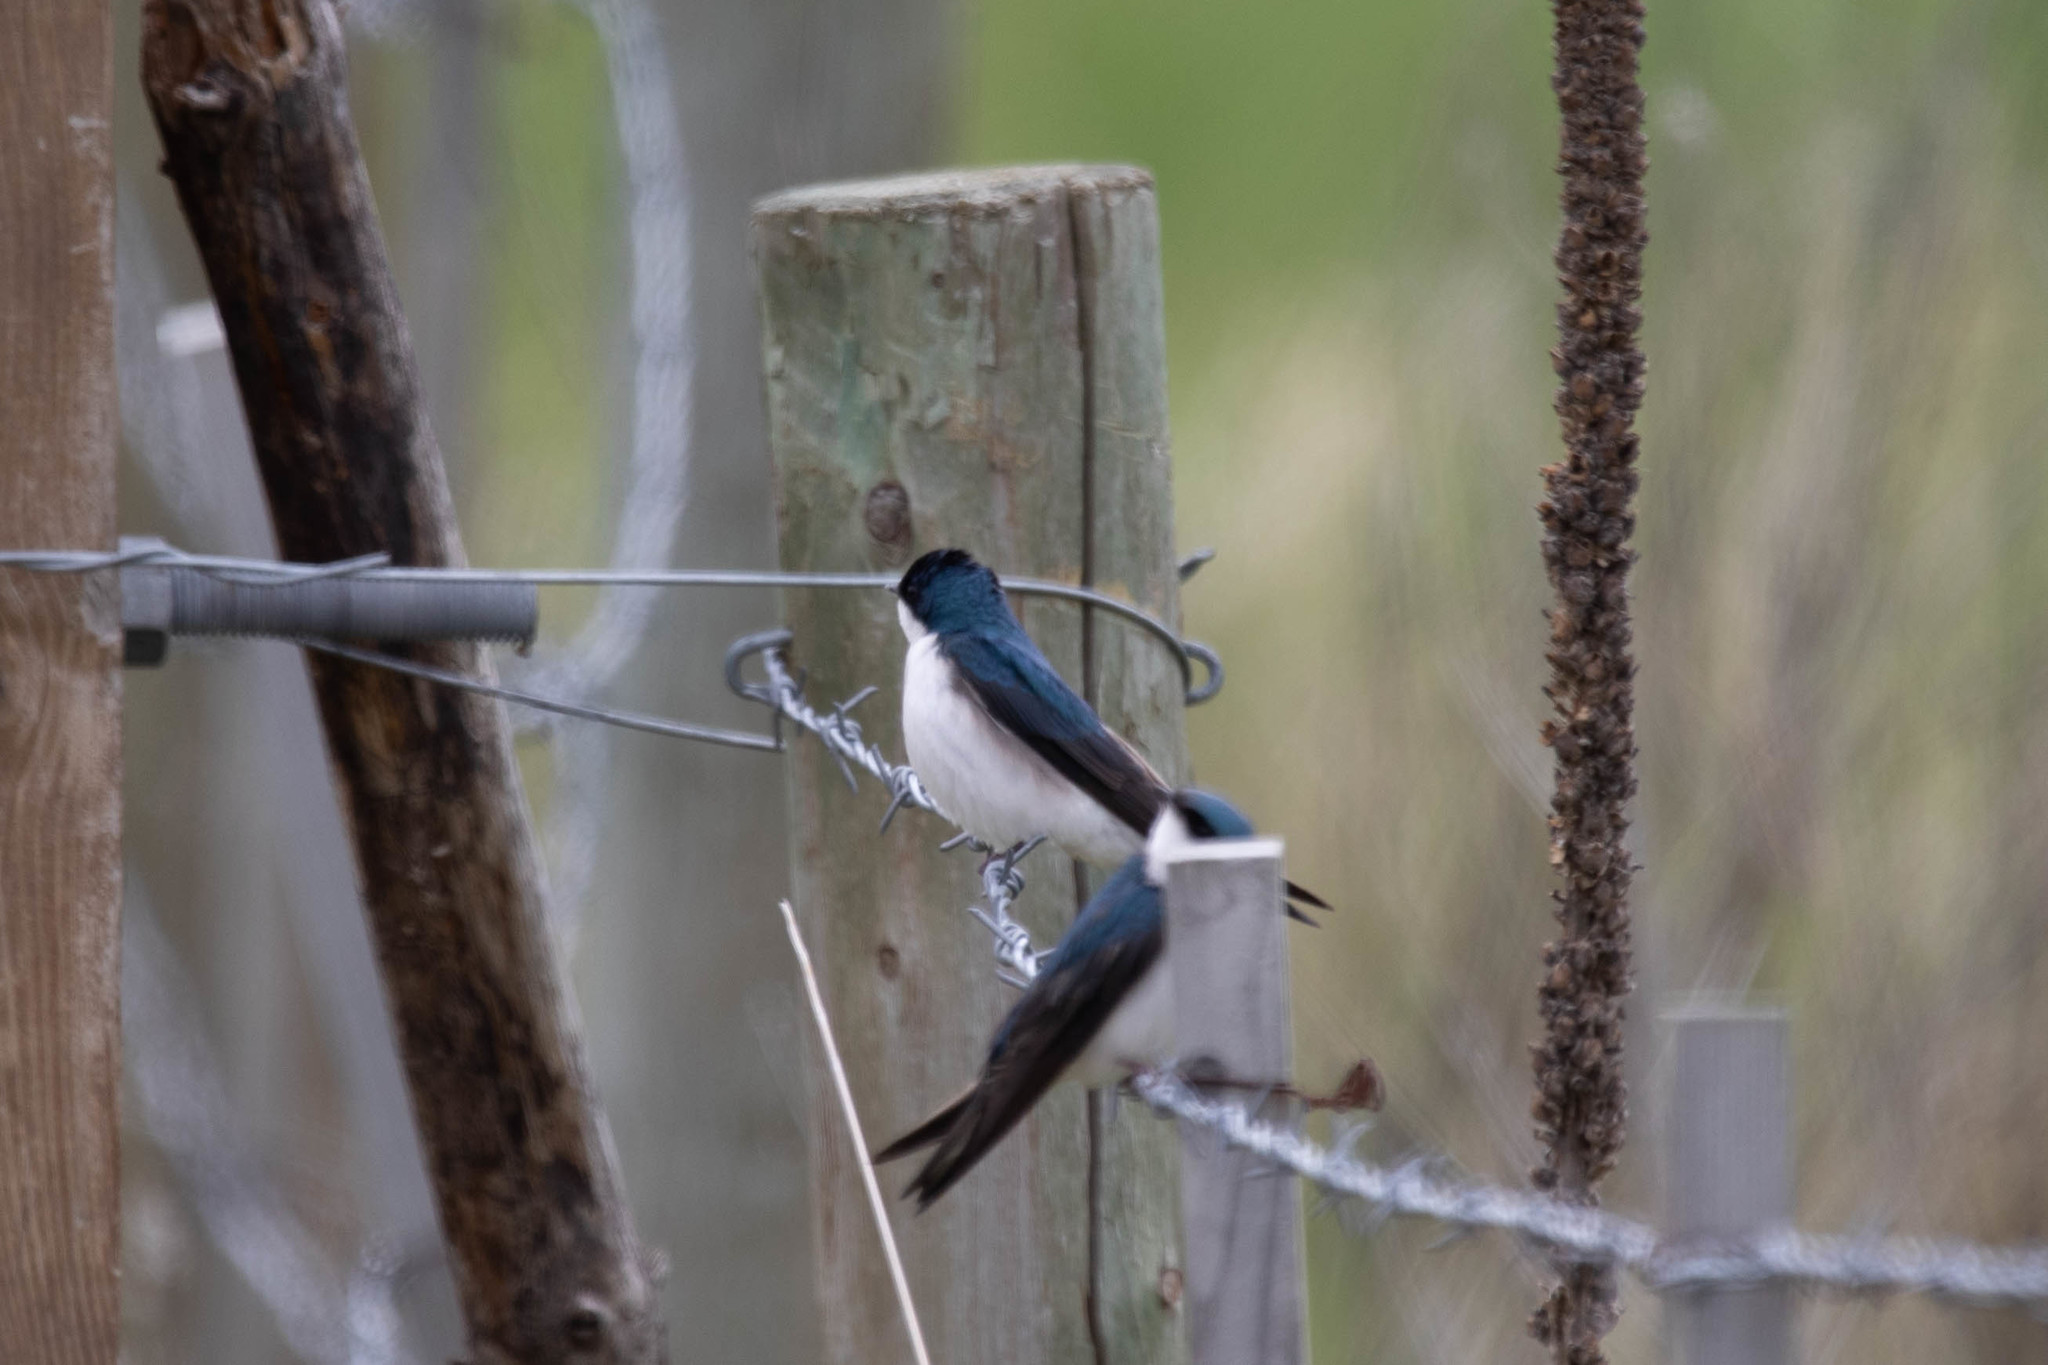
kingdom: Animalia
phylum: Chordata
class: Aves
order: Passeriformes
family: Hirundinidae
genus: Tachycineta
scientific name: Tachycineta bicolor
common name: Tree swallow
